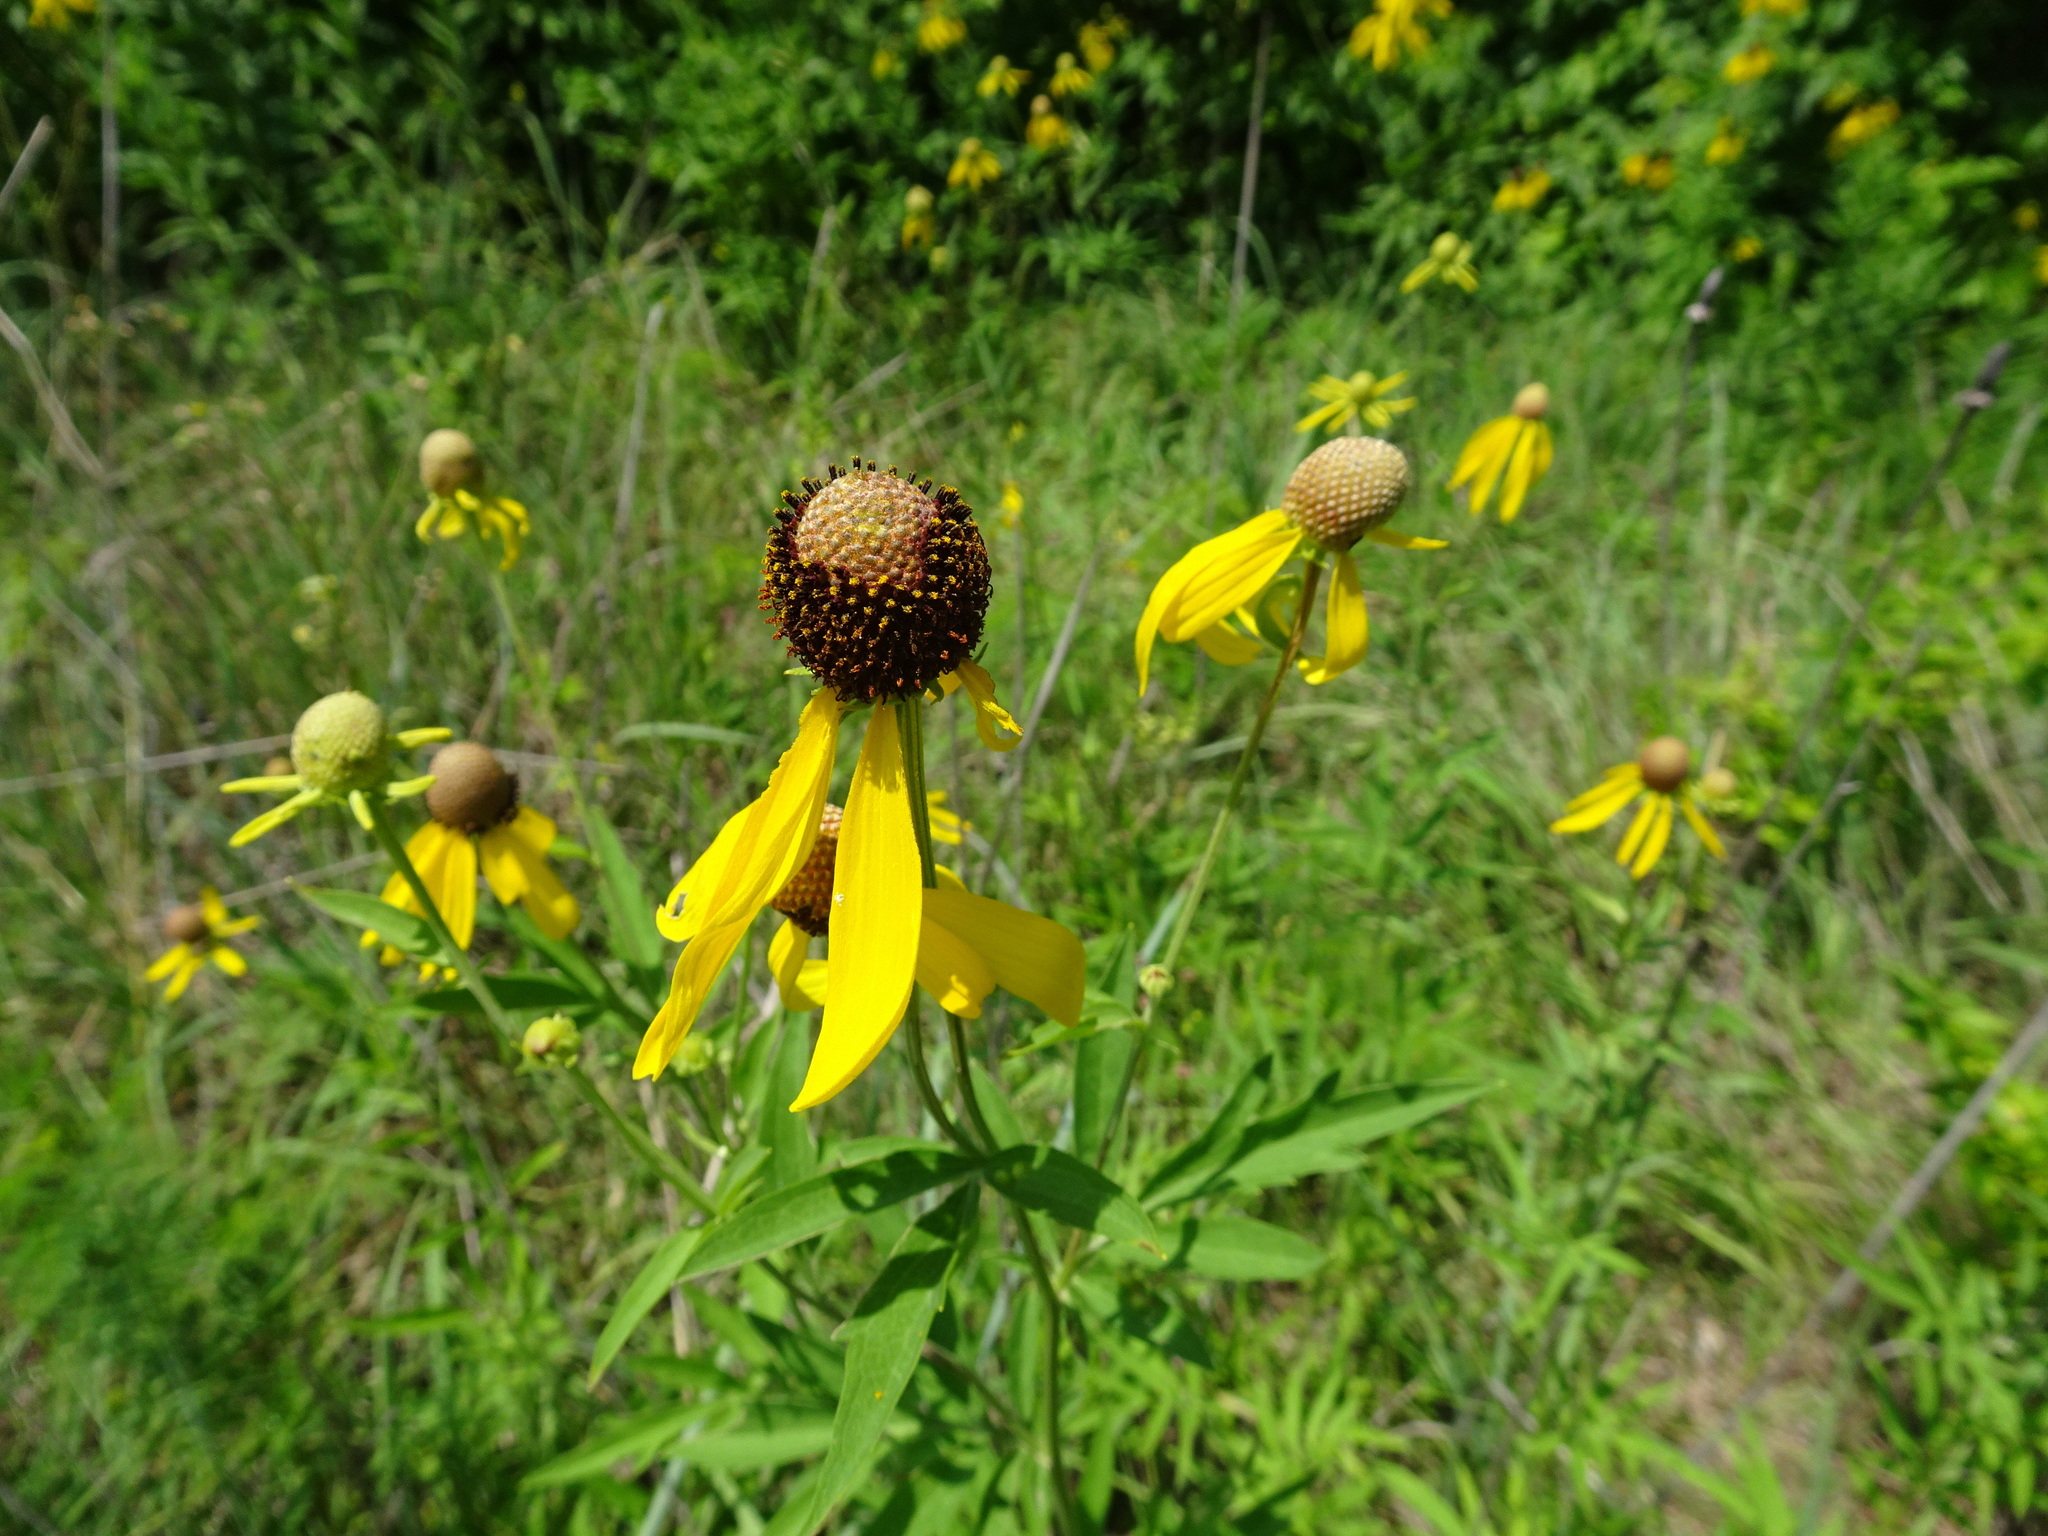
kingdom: Plantae
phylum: Tracheophyta
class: Magnoliopsida
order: Asterales
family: Asteraceae
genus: Ratibida
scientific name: Ratibida pinnata
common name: Drooping prairie-coneflower
